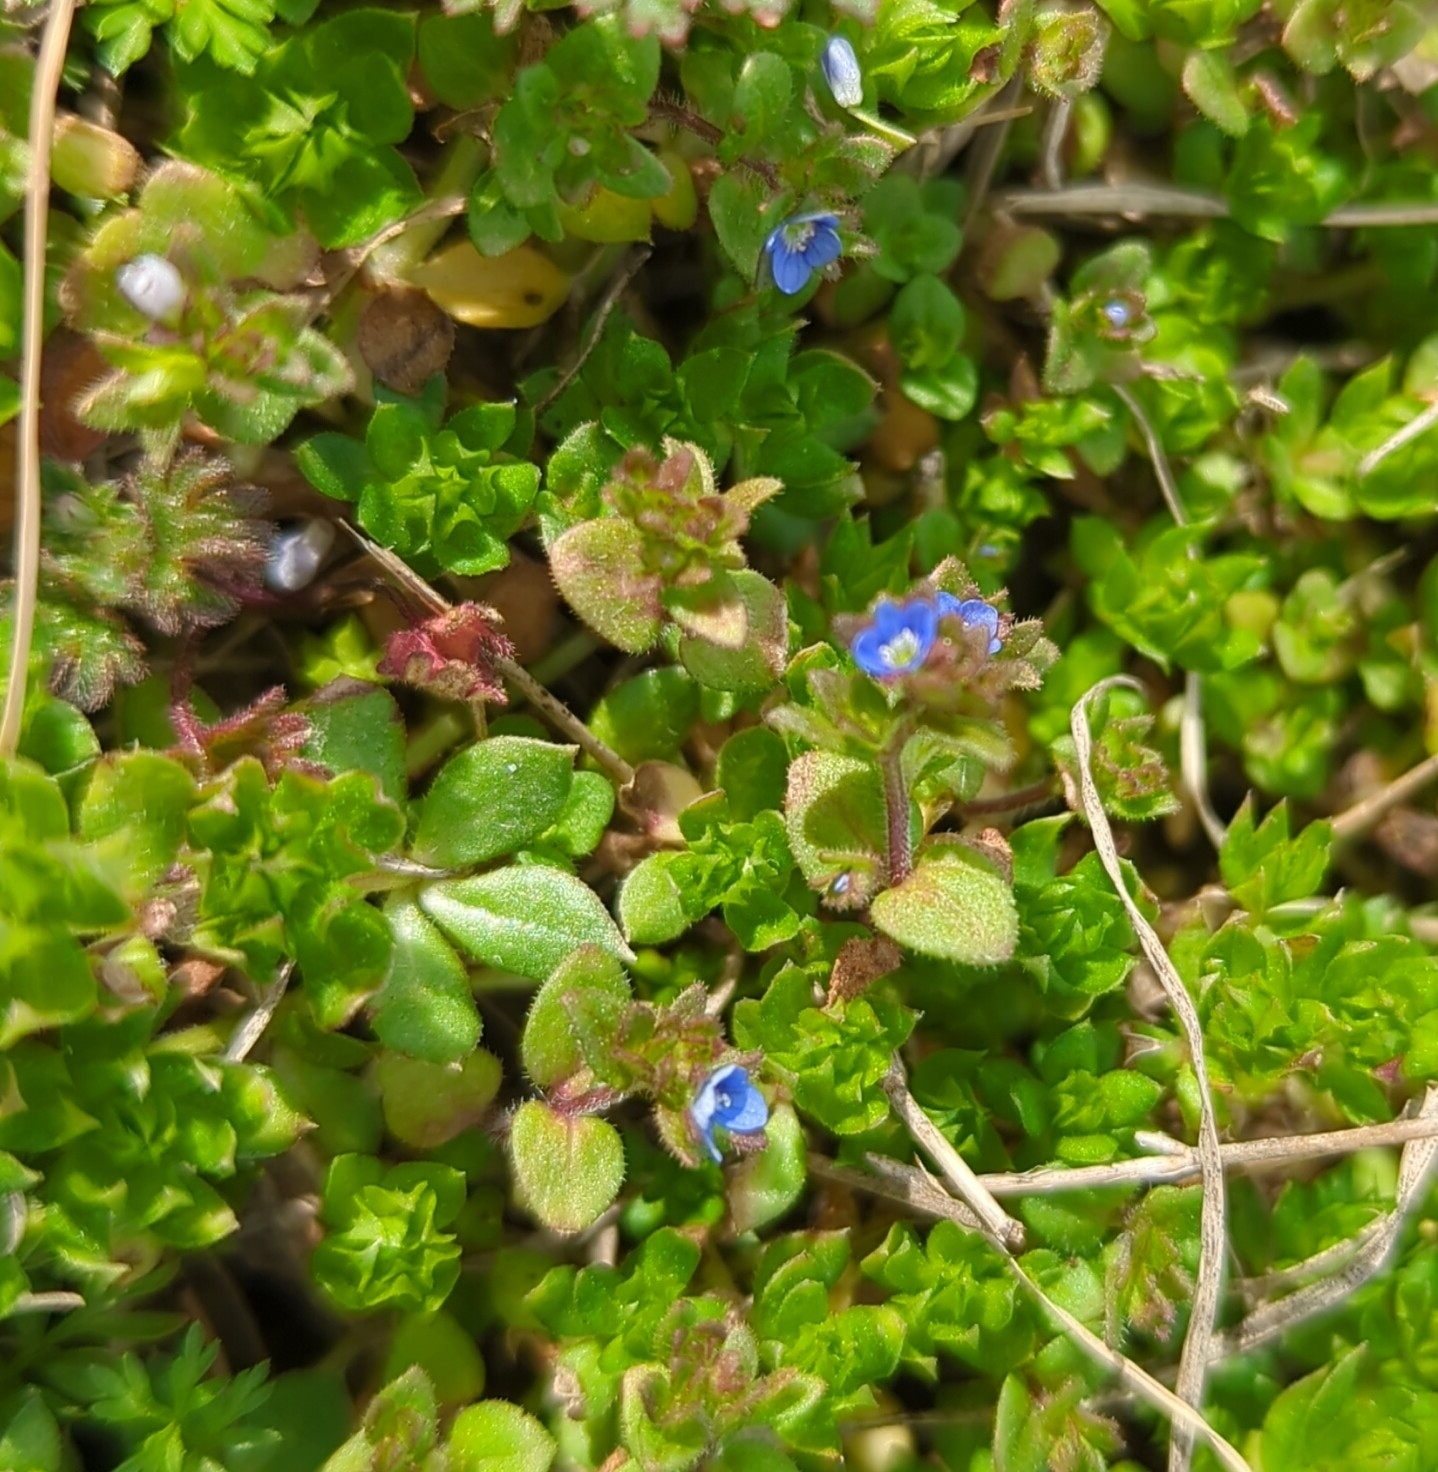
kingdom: Plantae
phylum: Tracheophyta
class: Magnoliopsida
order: Lamiales
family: Plantaginaceae
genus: Veronica
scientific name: Veronica arvensis
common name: Corn speedwell
